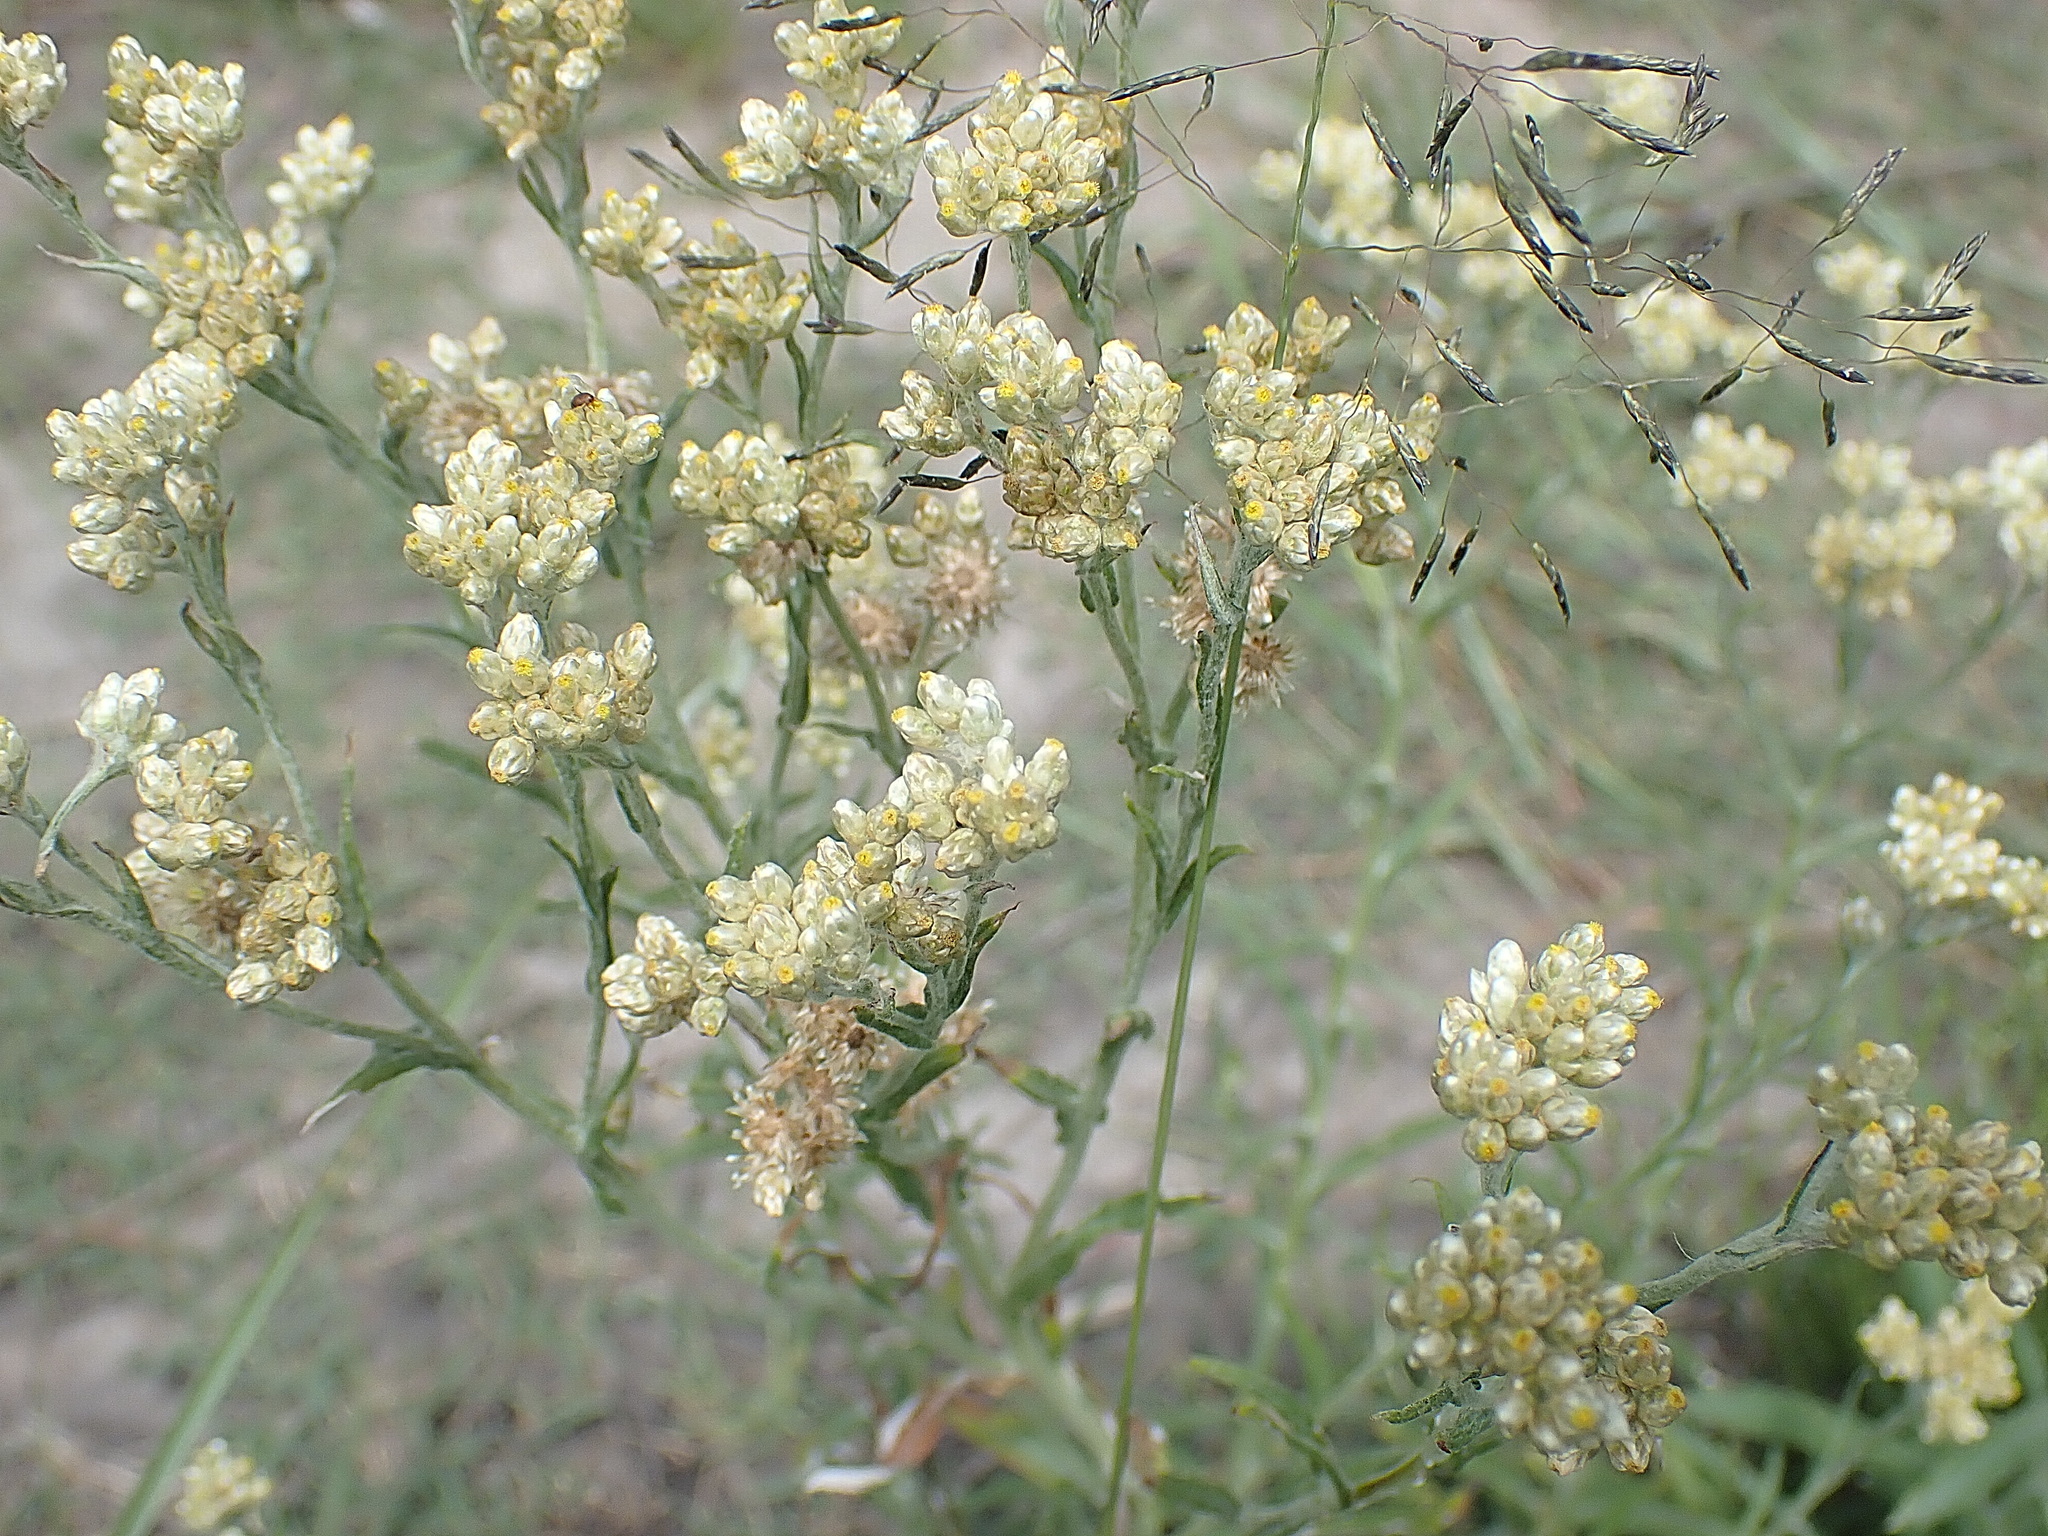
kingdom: Plantae
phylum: Tracheophyta
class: Magnoliopsida
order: Asterales
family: Asteraceae
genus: Helichrysum
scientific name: Helichrysum rosum
